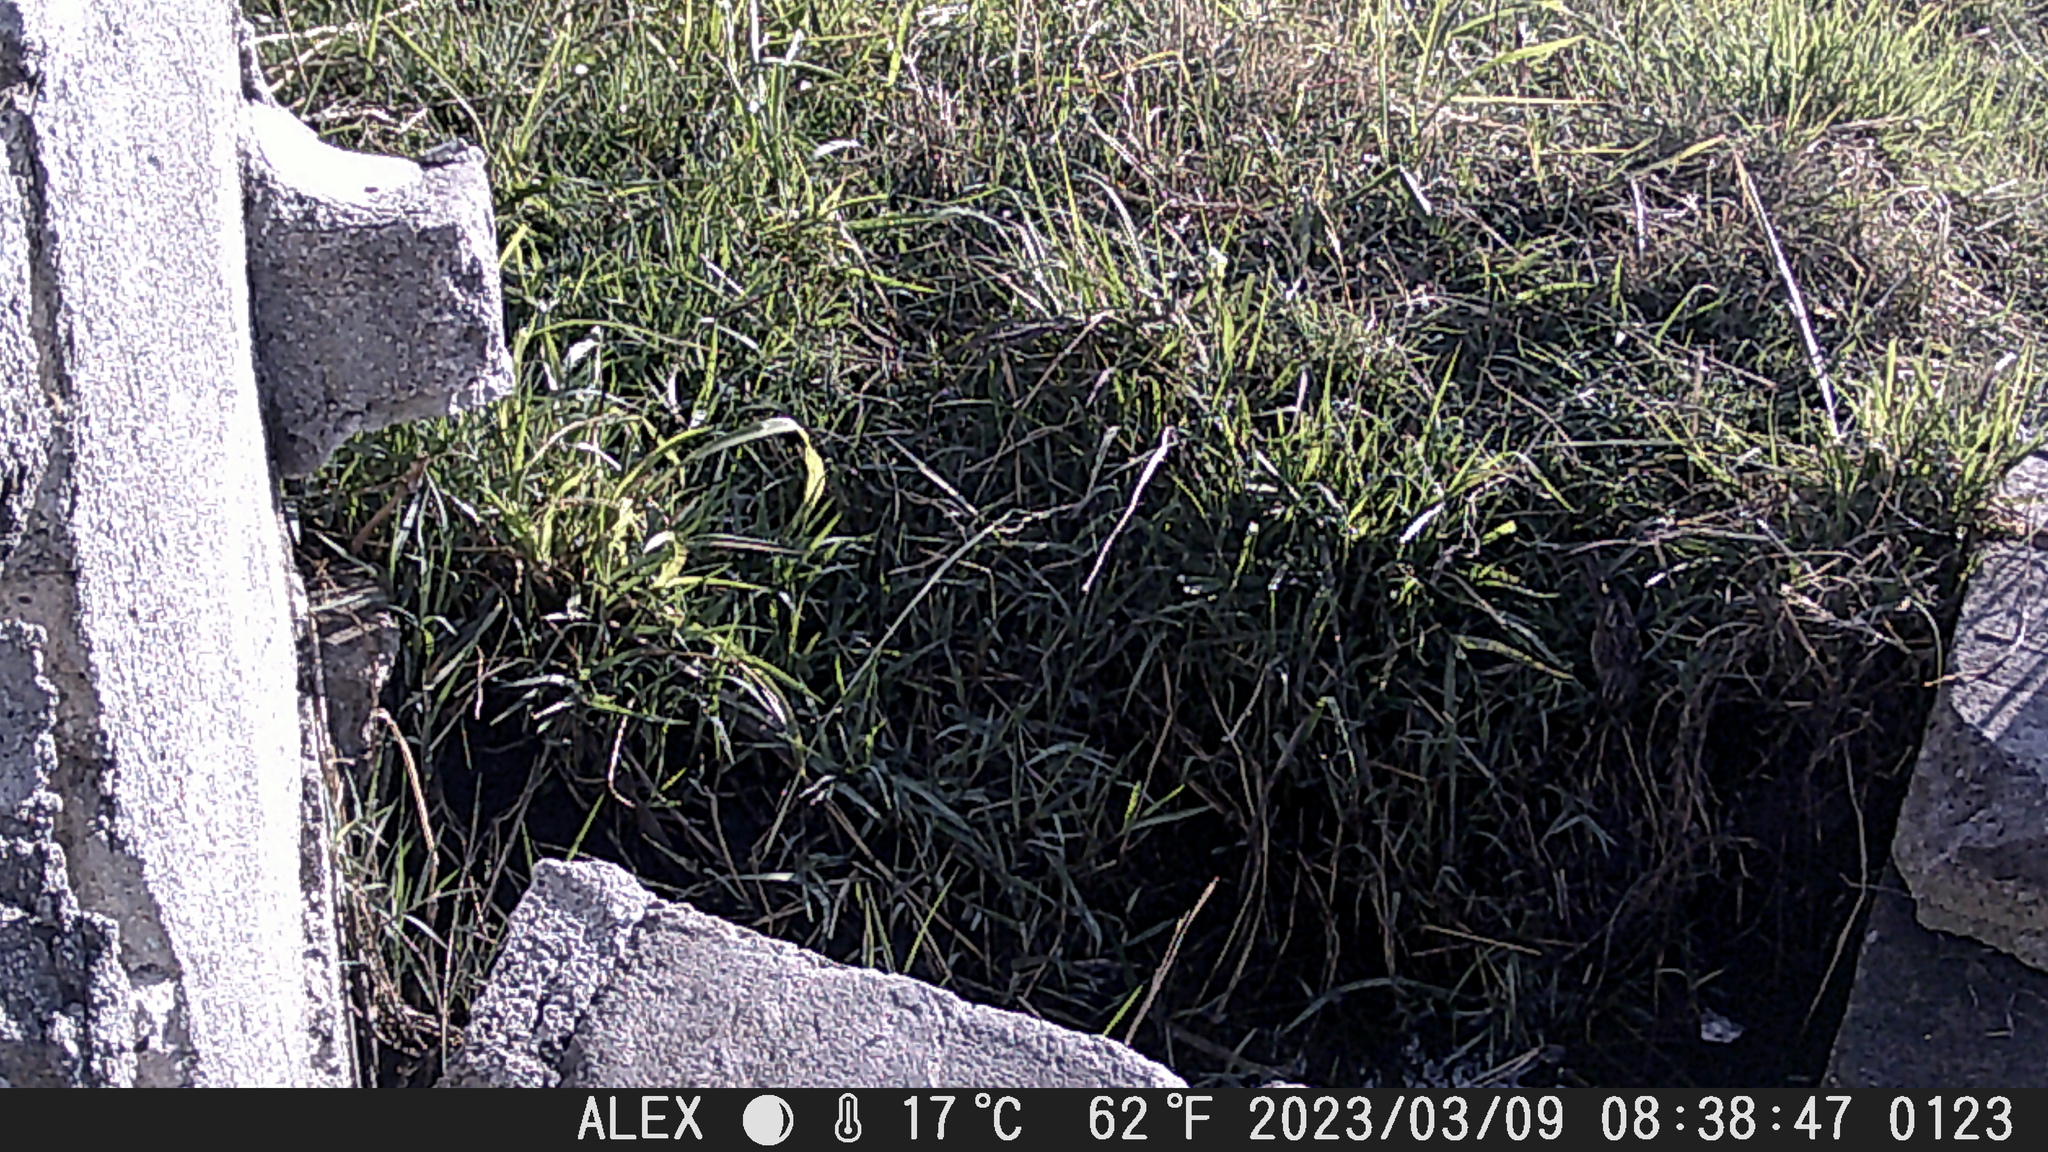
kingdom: Animalia
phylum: Chordata
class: Aves
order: Passeriformes
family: Passerellidae
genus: Chondestes
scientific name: Chondestes grammacus
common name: Lark sparrow
